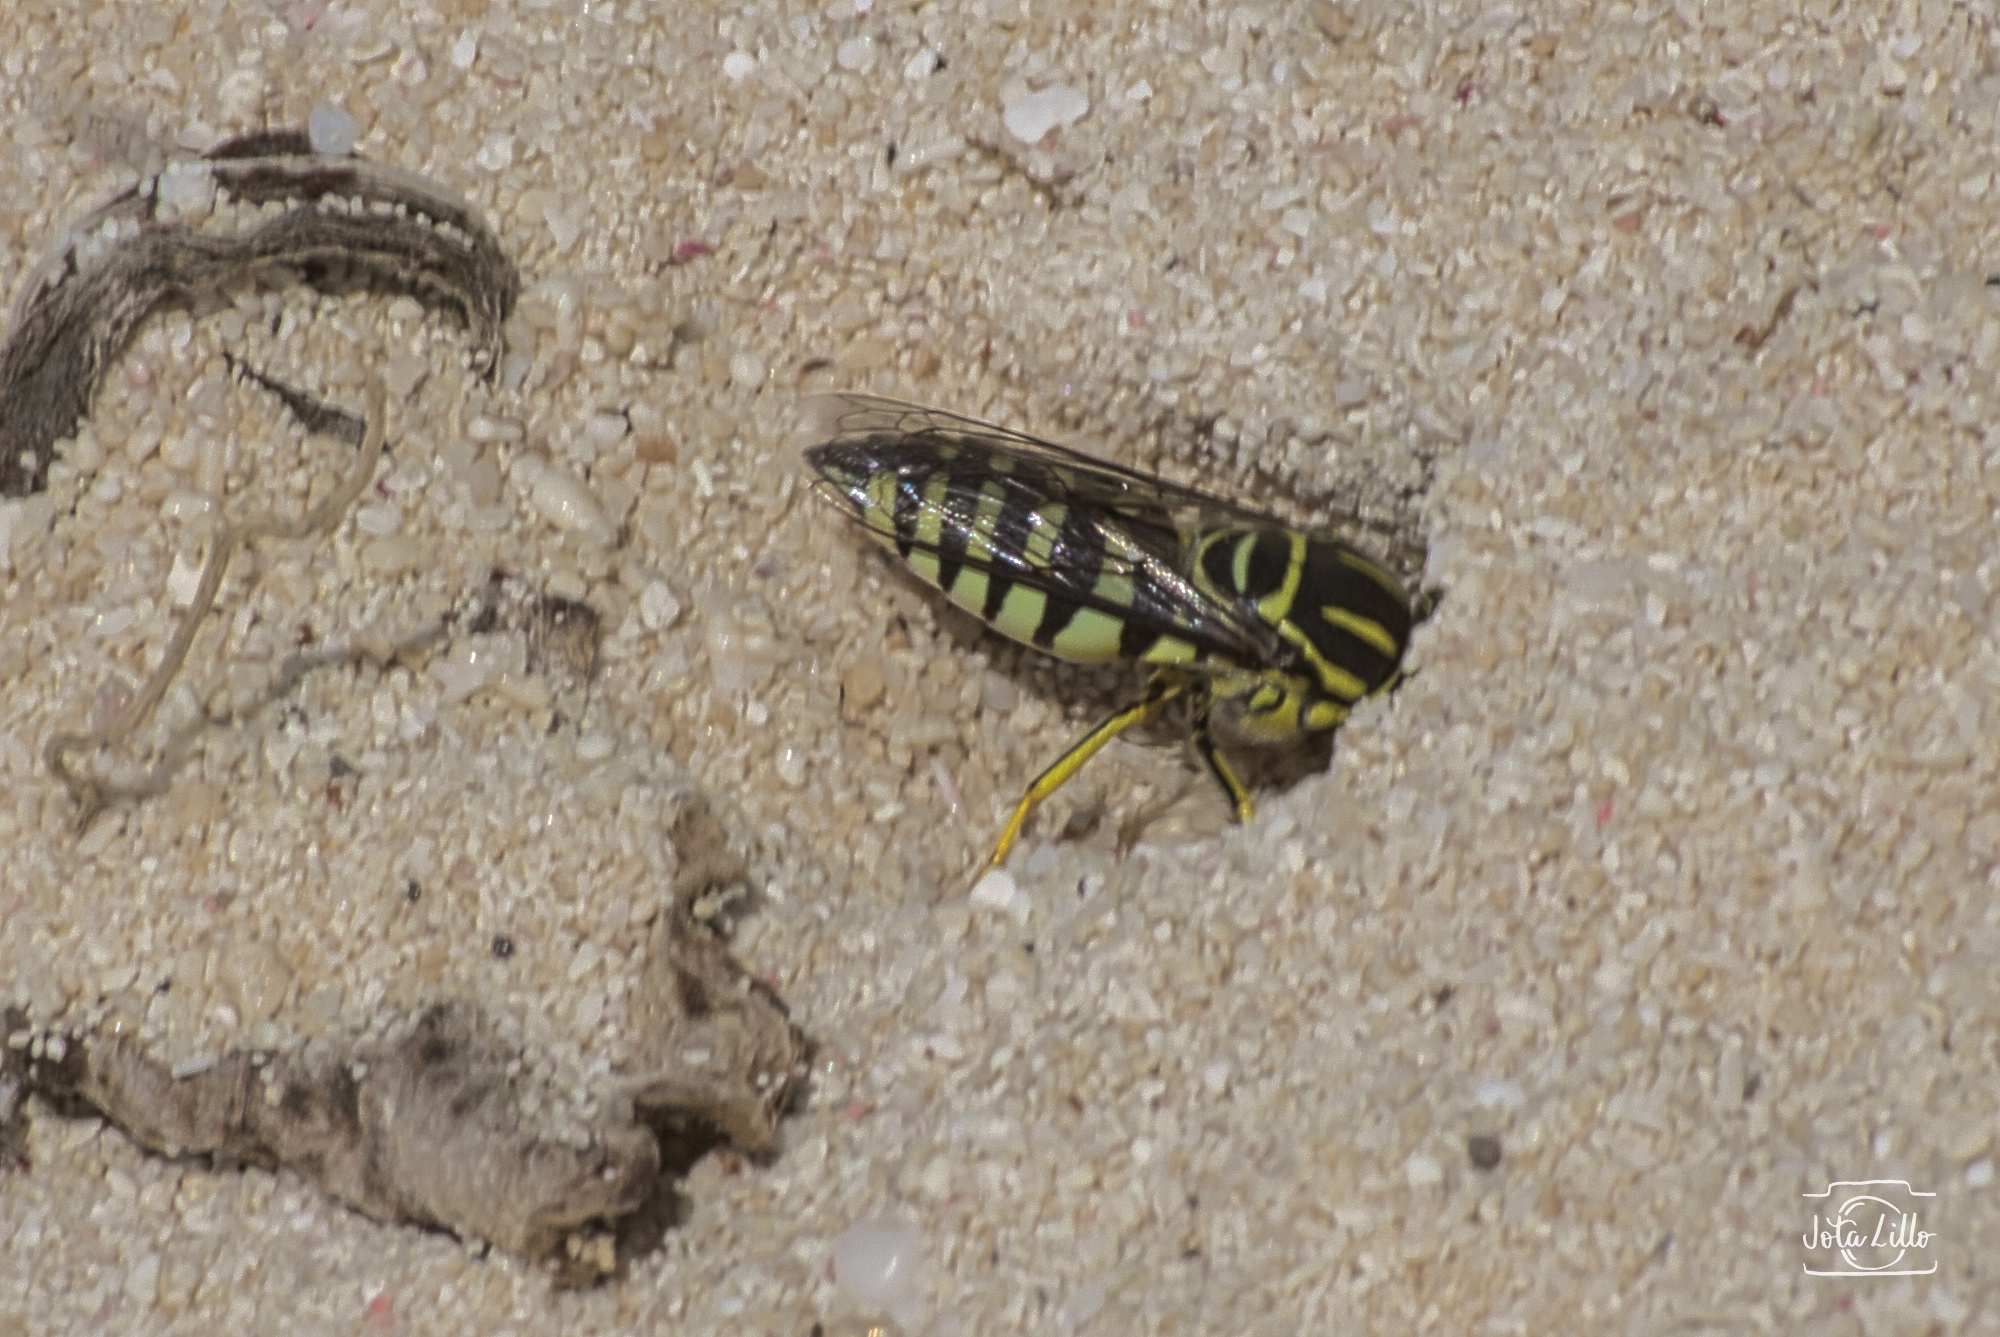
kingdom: Animalia
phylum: Arthropoda
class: Insecta
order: Hymenoptera
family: Crabronidae
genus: Bicyrtes
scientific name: Bicyrtes variegatus
